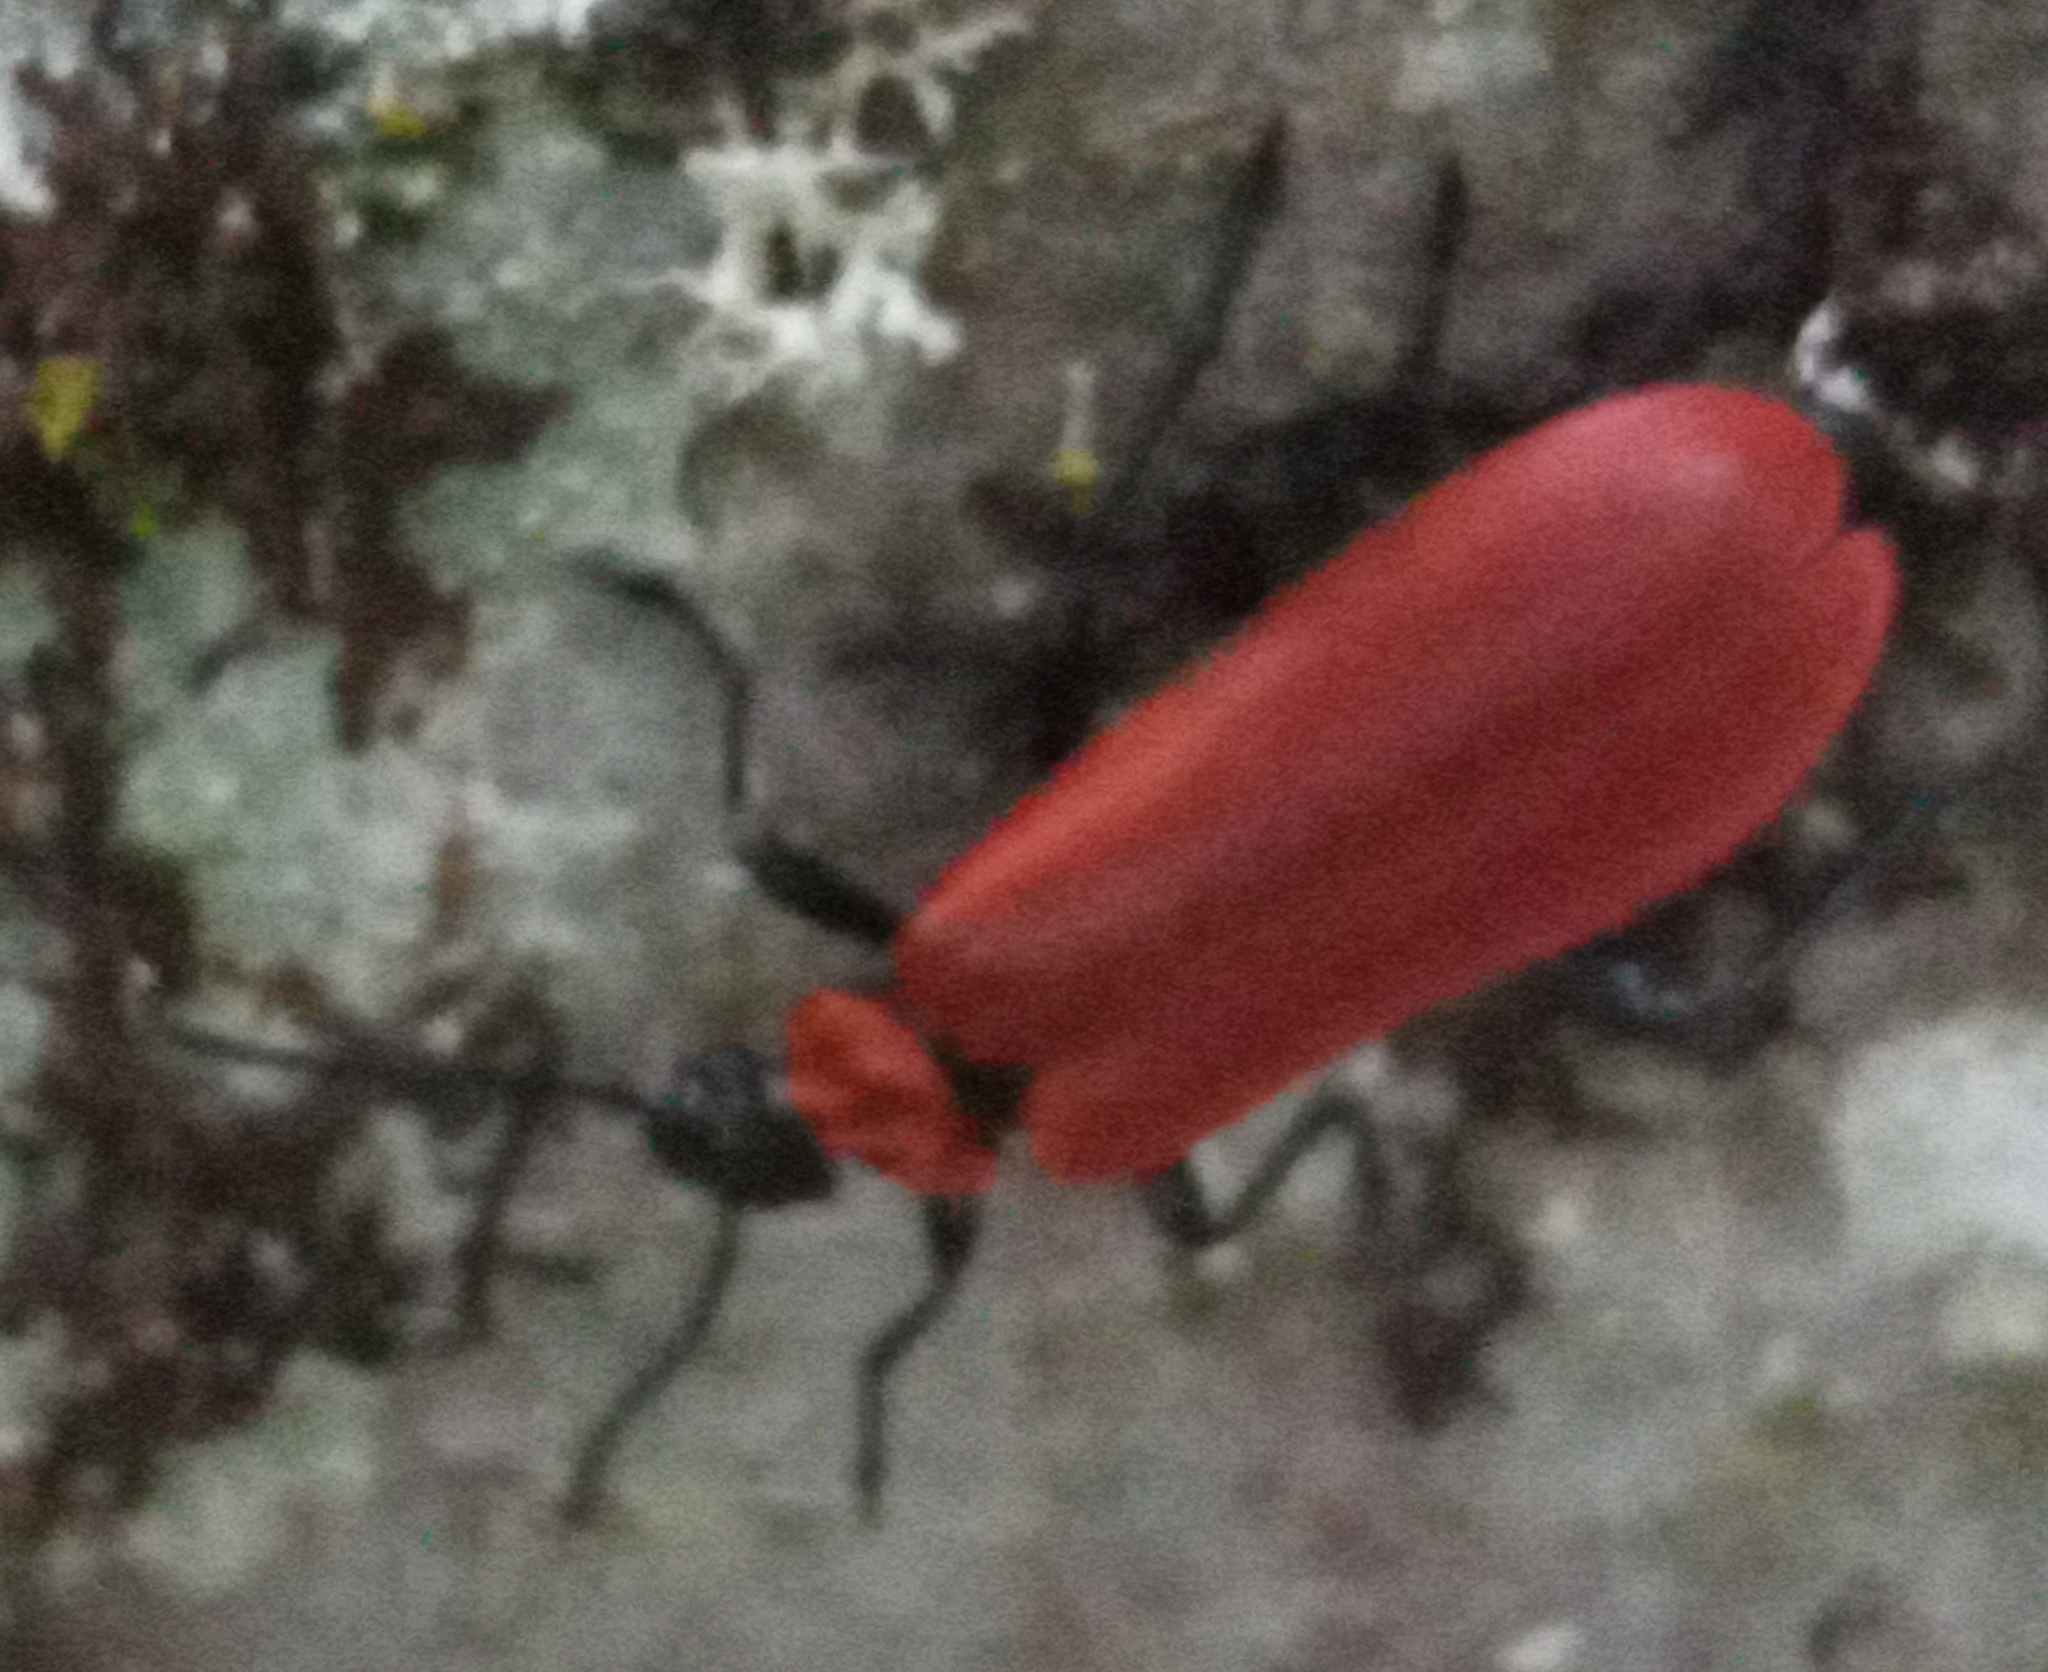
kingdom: Animalia
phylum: Arthropoda
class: Insecta
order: Coleoptera
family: Pyrochroidae
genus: Pyrochroa
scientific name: Pyrochroa coccinea
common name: Black-headed cardinal beetle
